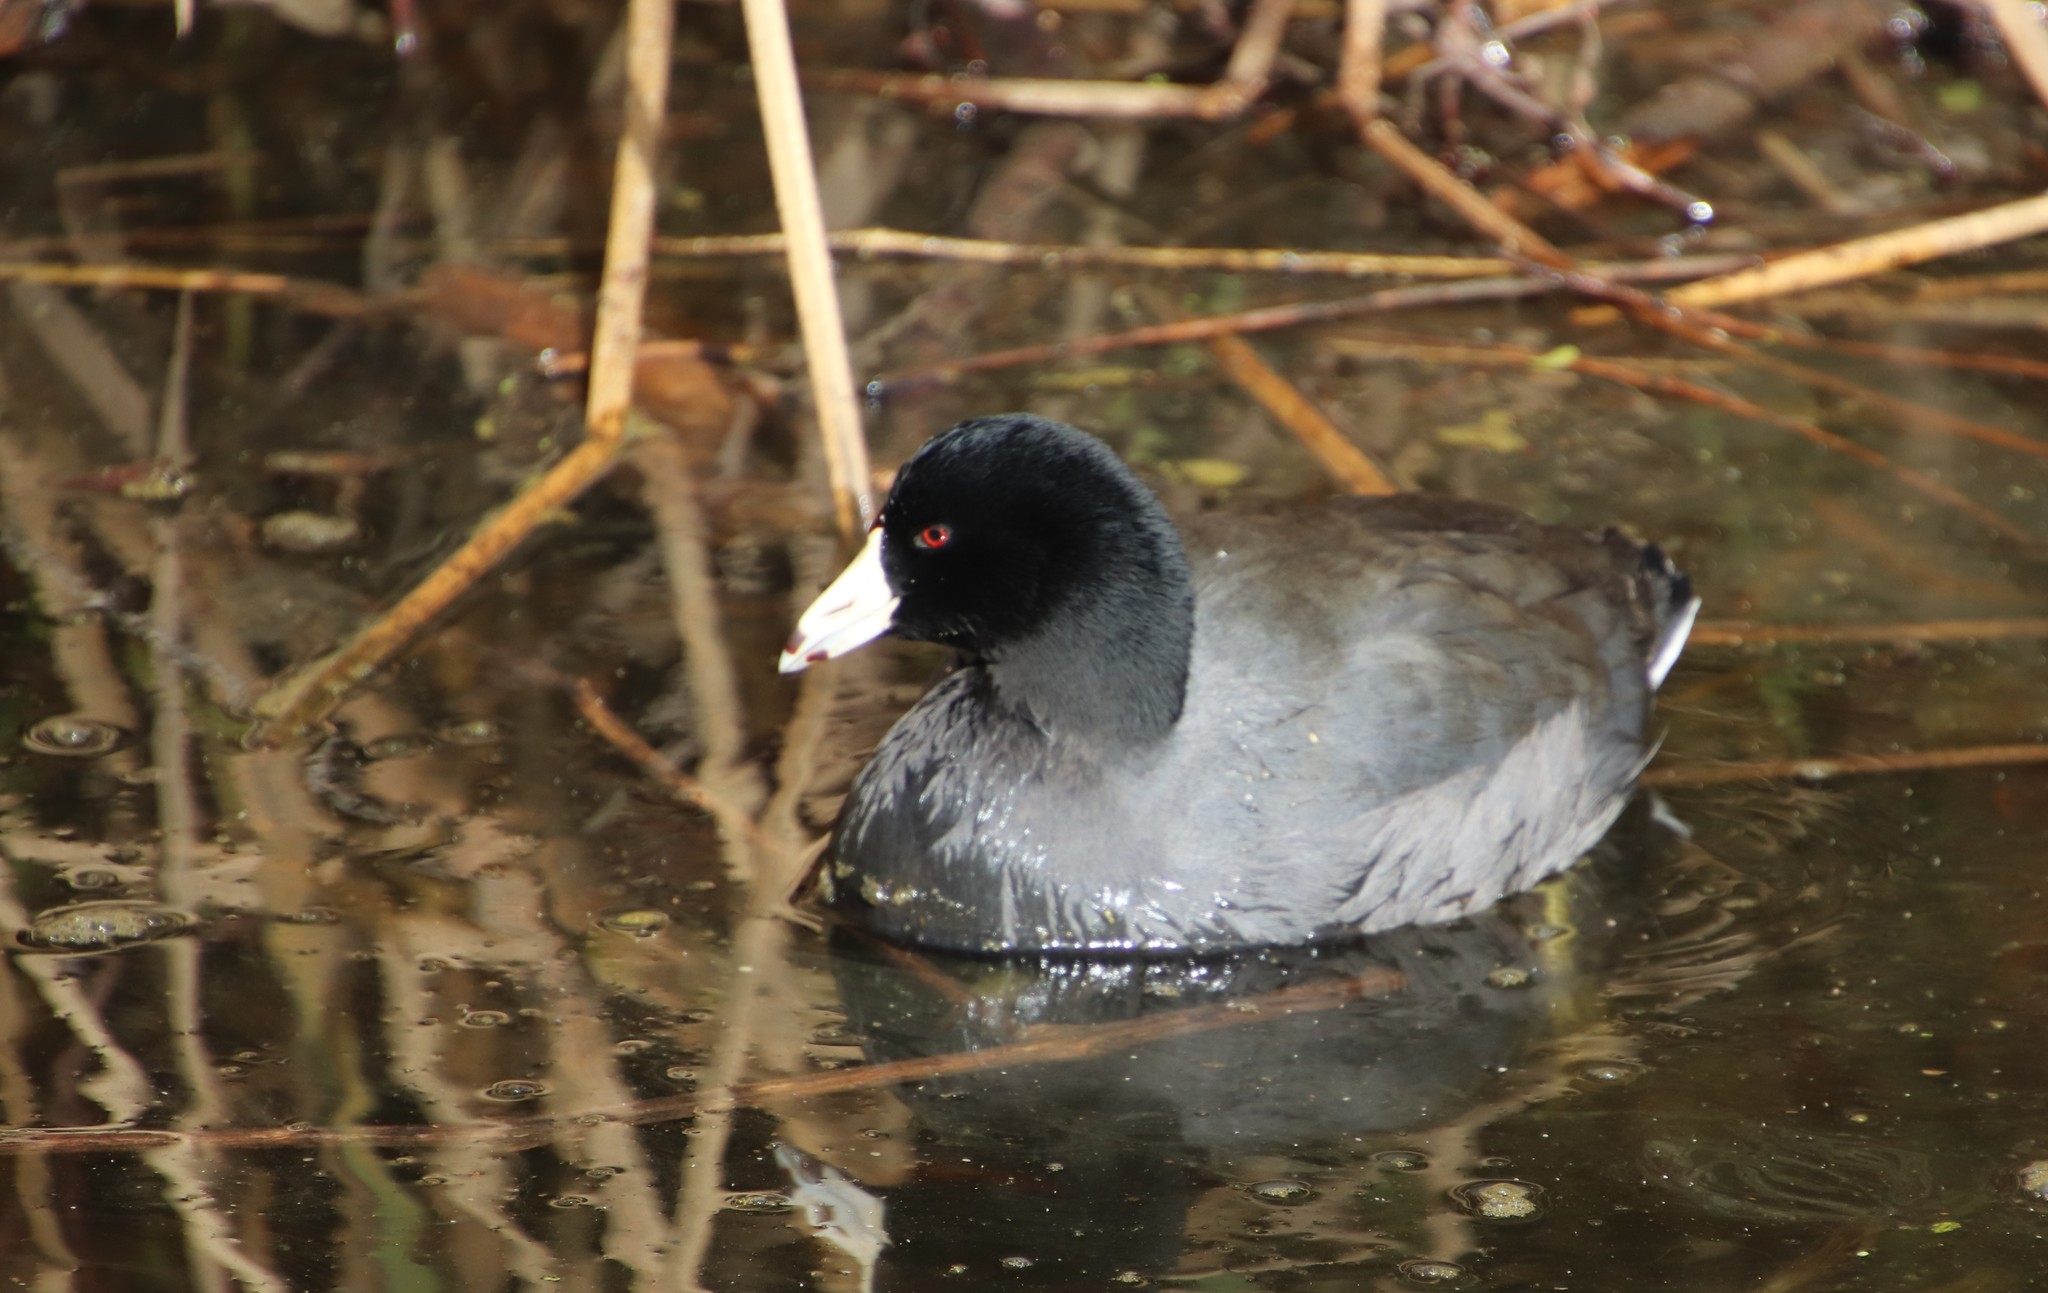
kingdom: Animalia
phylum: Chordata
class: Aves
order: Gruiformes
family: Rallidae
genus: Fulica
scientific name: Fulica americana
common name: American coot
